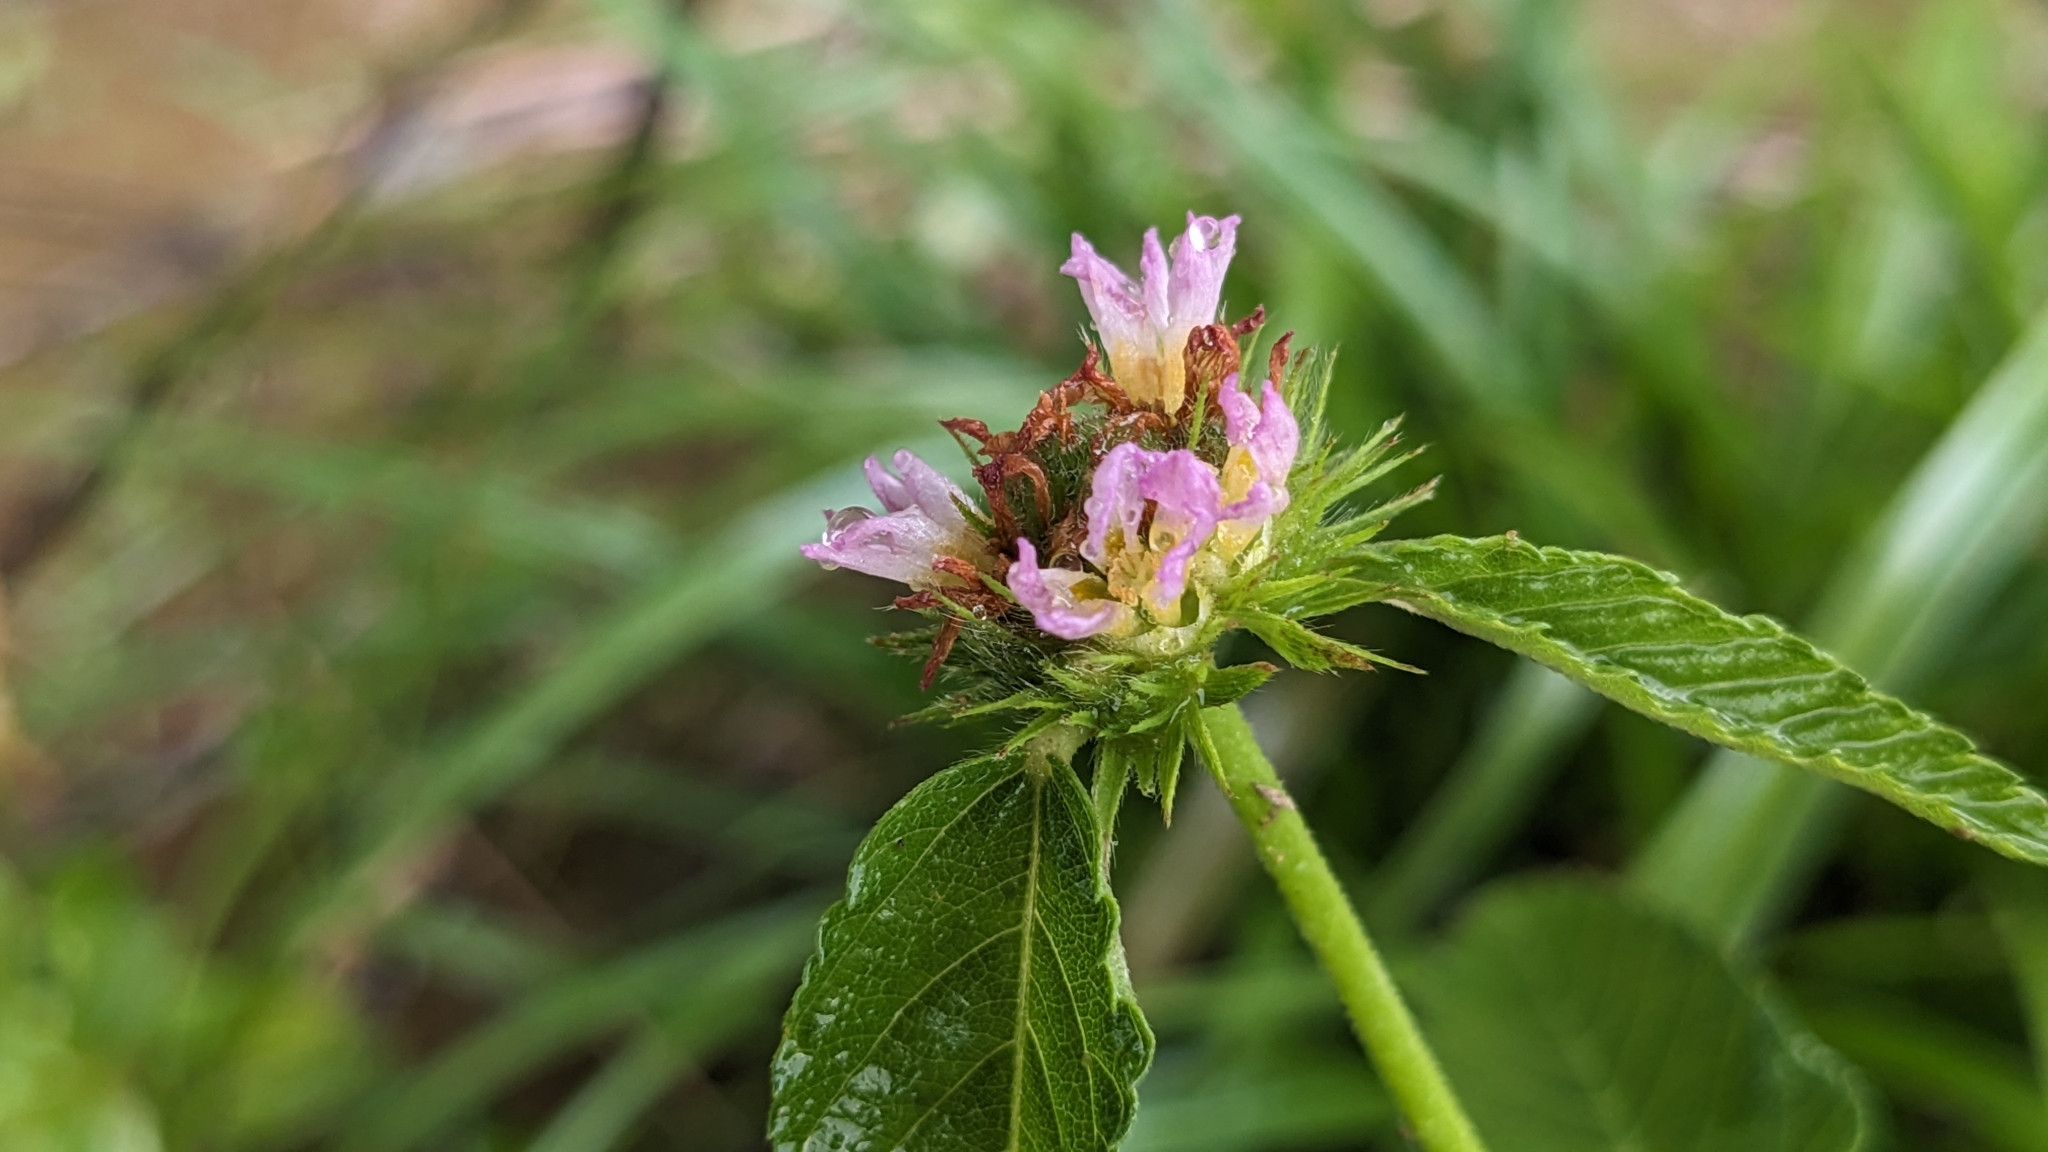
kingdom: Plantae
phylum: Tracheophyta
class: Magnoliopsida
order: Malvales
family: Malvaceae
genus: Melochia
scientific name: Melochia corchorifolia
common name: Chocolateweed
